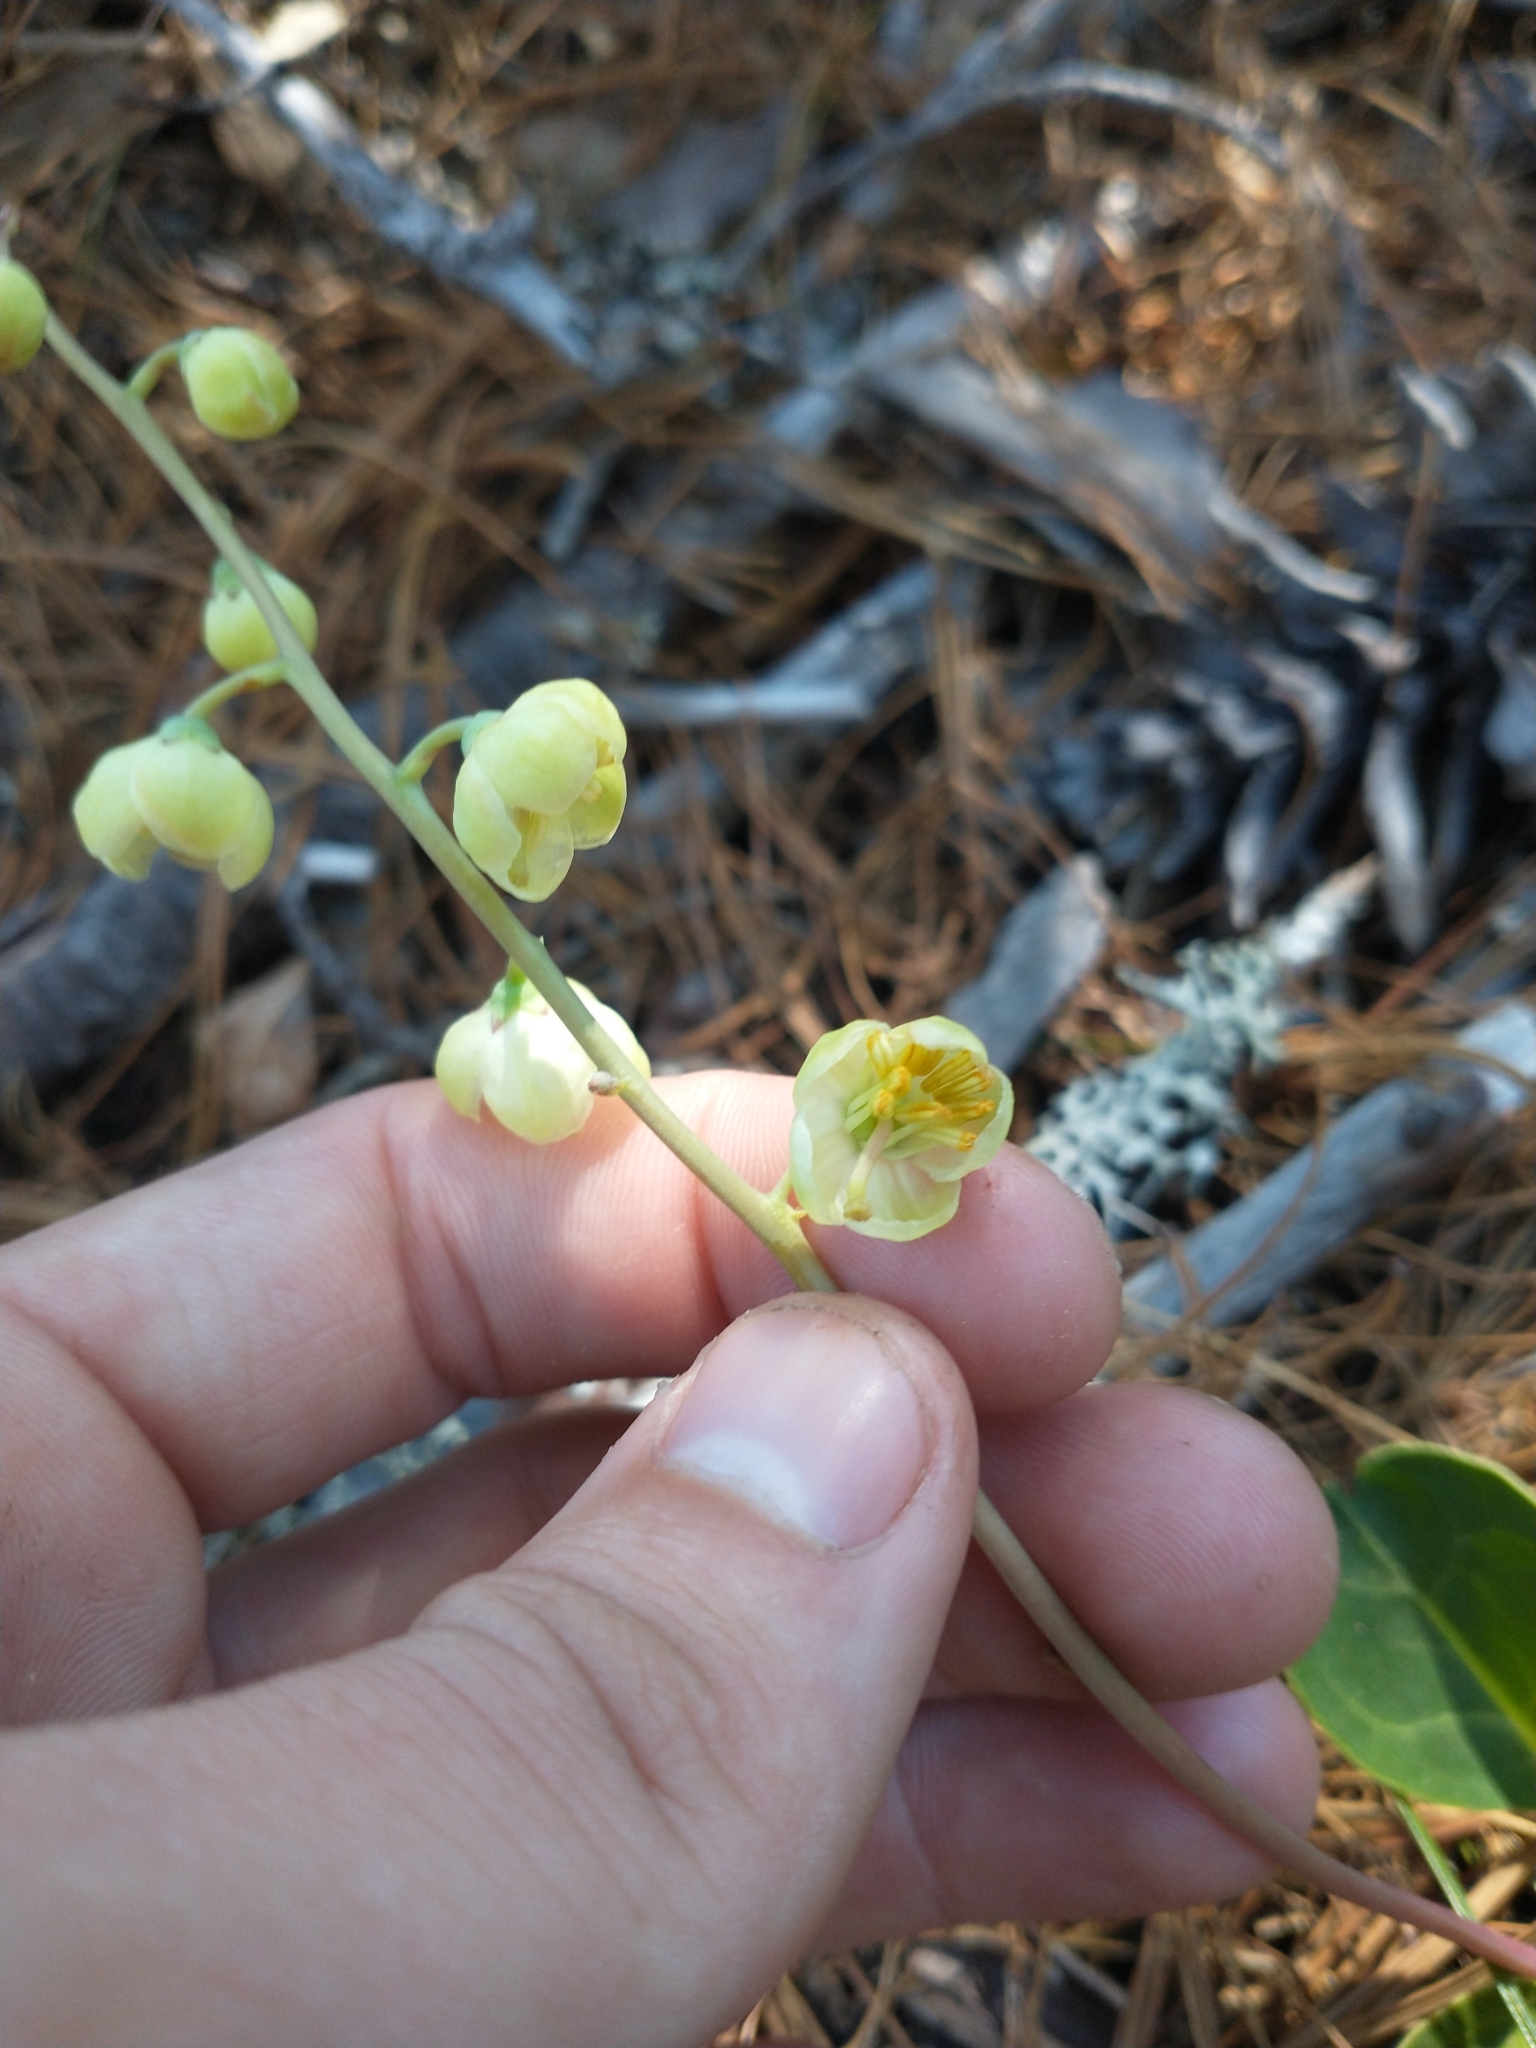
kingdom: Plantae
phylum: Tracheophyta
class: Magnoliopsida
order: Ericales
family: Ericaceae
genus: Pyrola
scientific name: Pyrola dentata
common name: Tooth-leaved wintergreen
